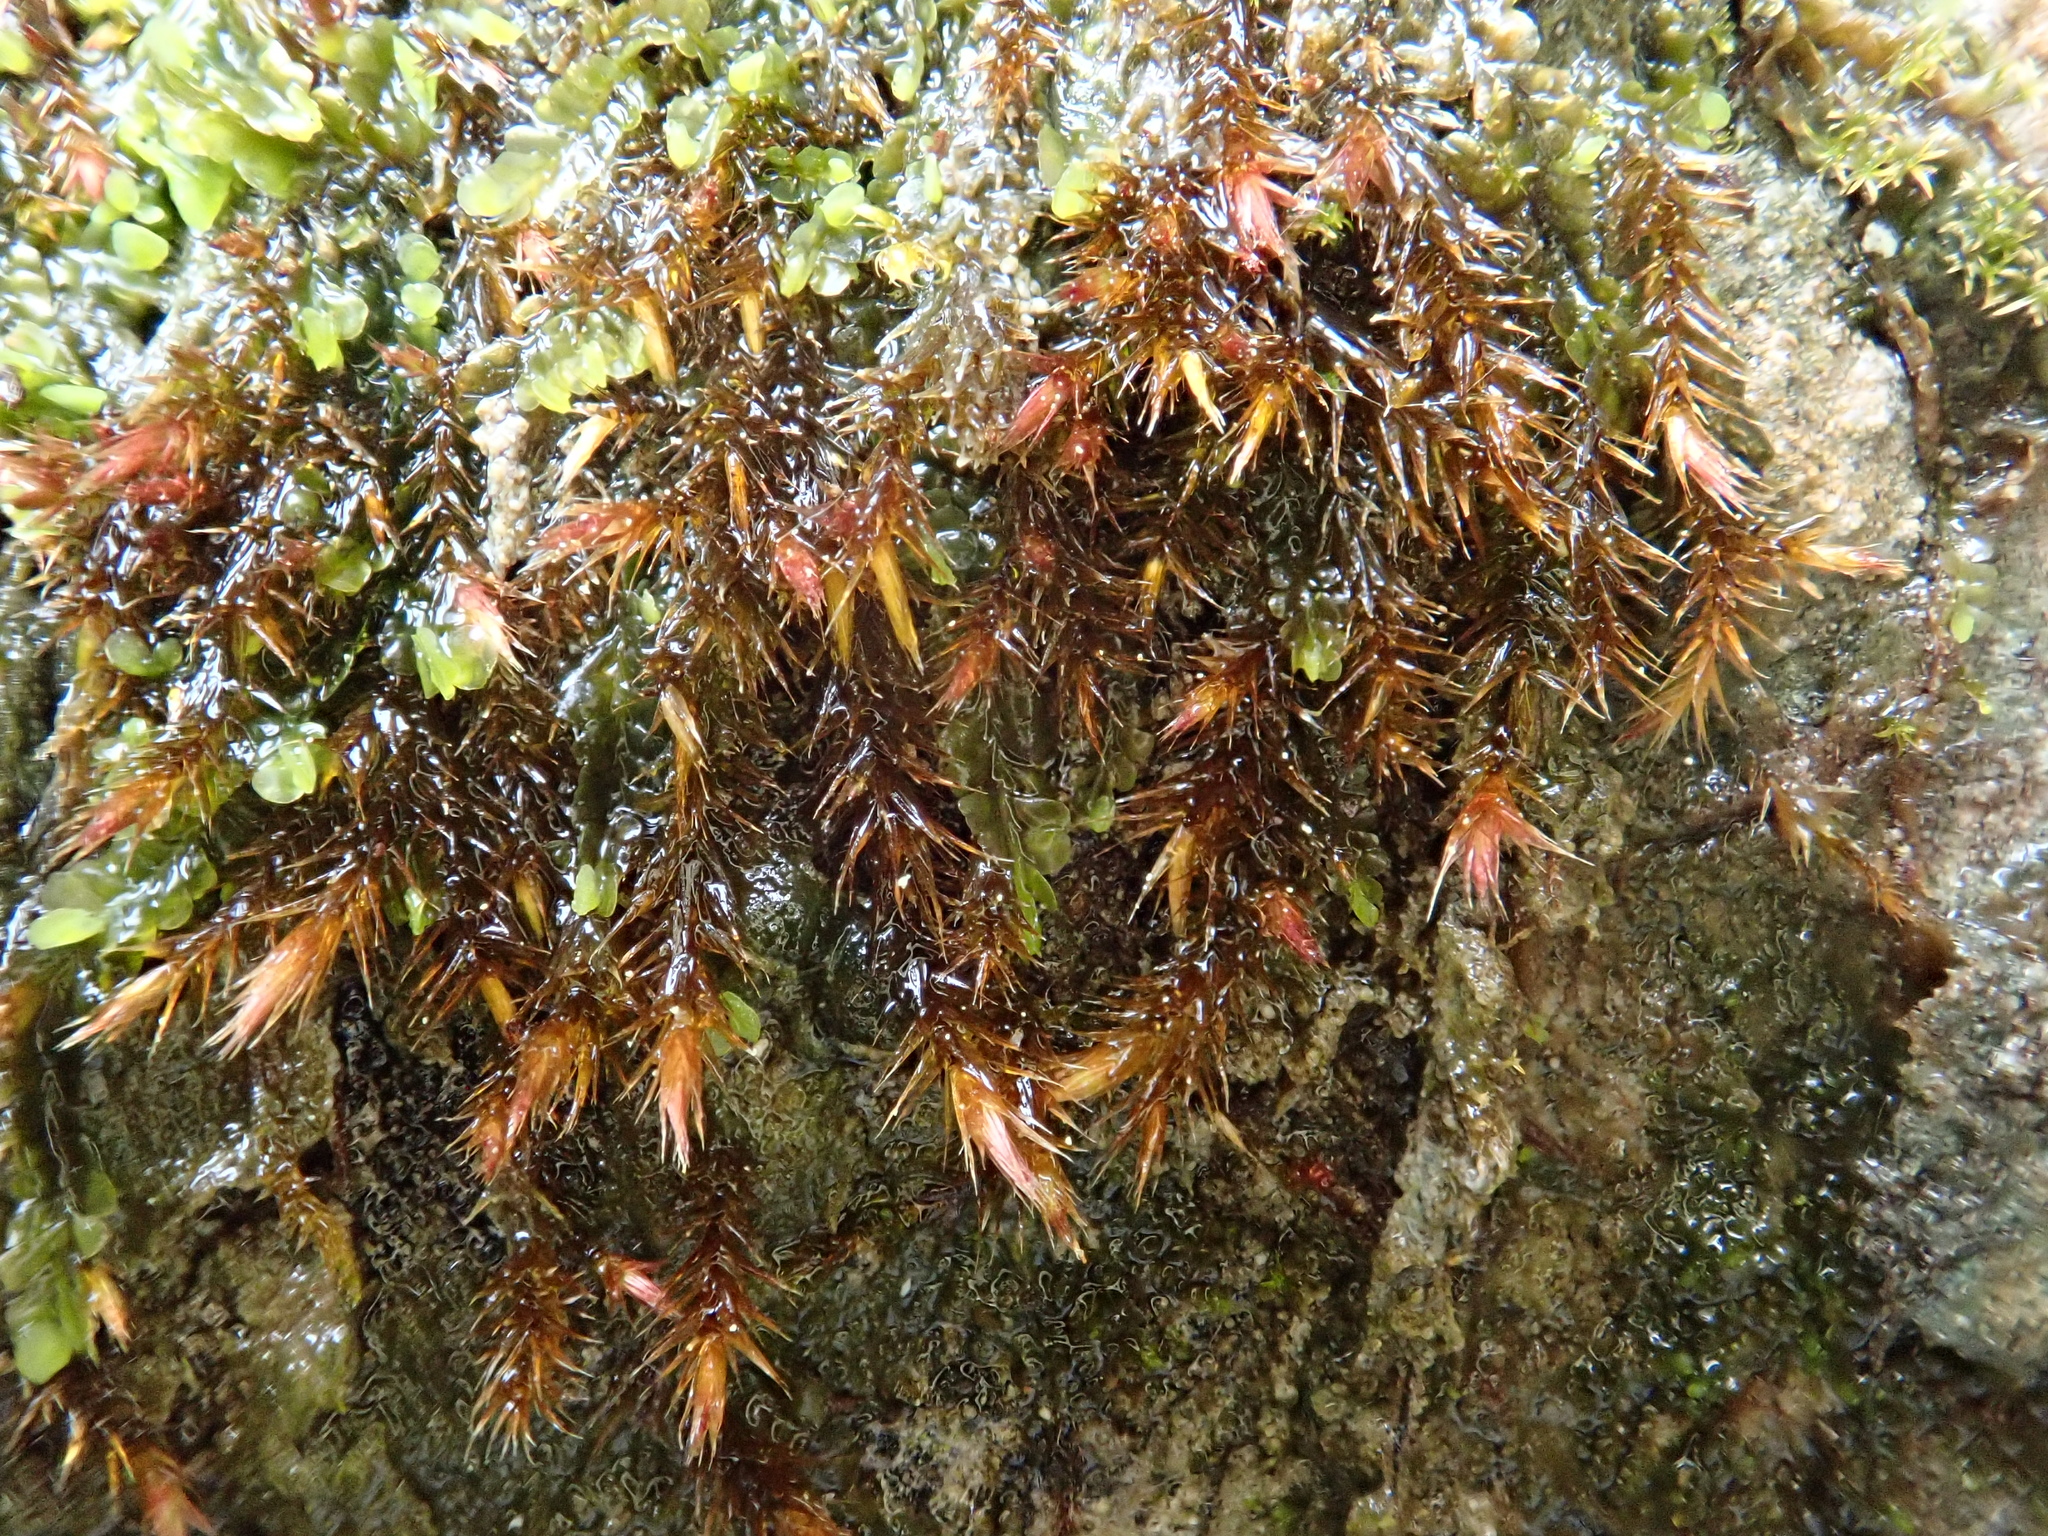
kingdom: Plantae
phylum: Bryophyta
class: Bryopsida
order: Hypnales
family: Plagiotheciaceae
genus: Orthothecium
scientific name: Orthothecium rufescens
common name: Red leskea
